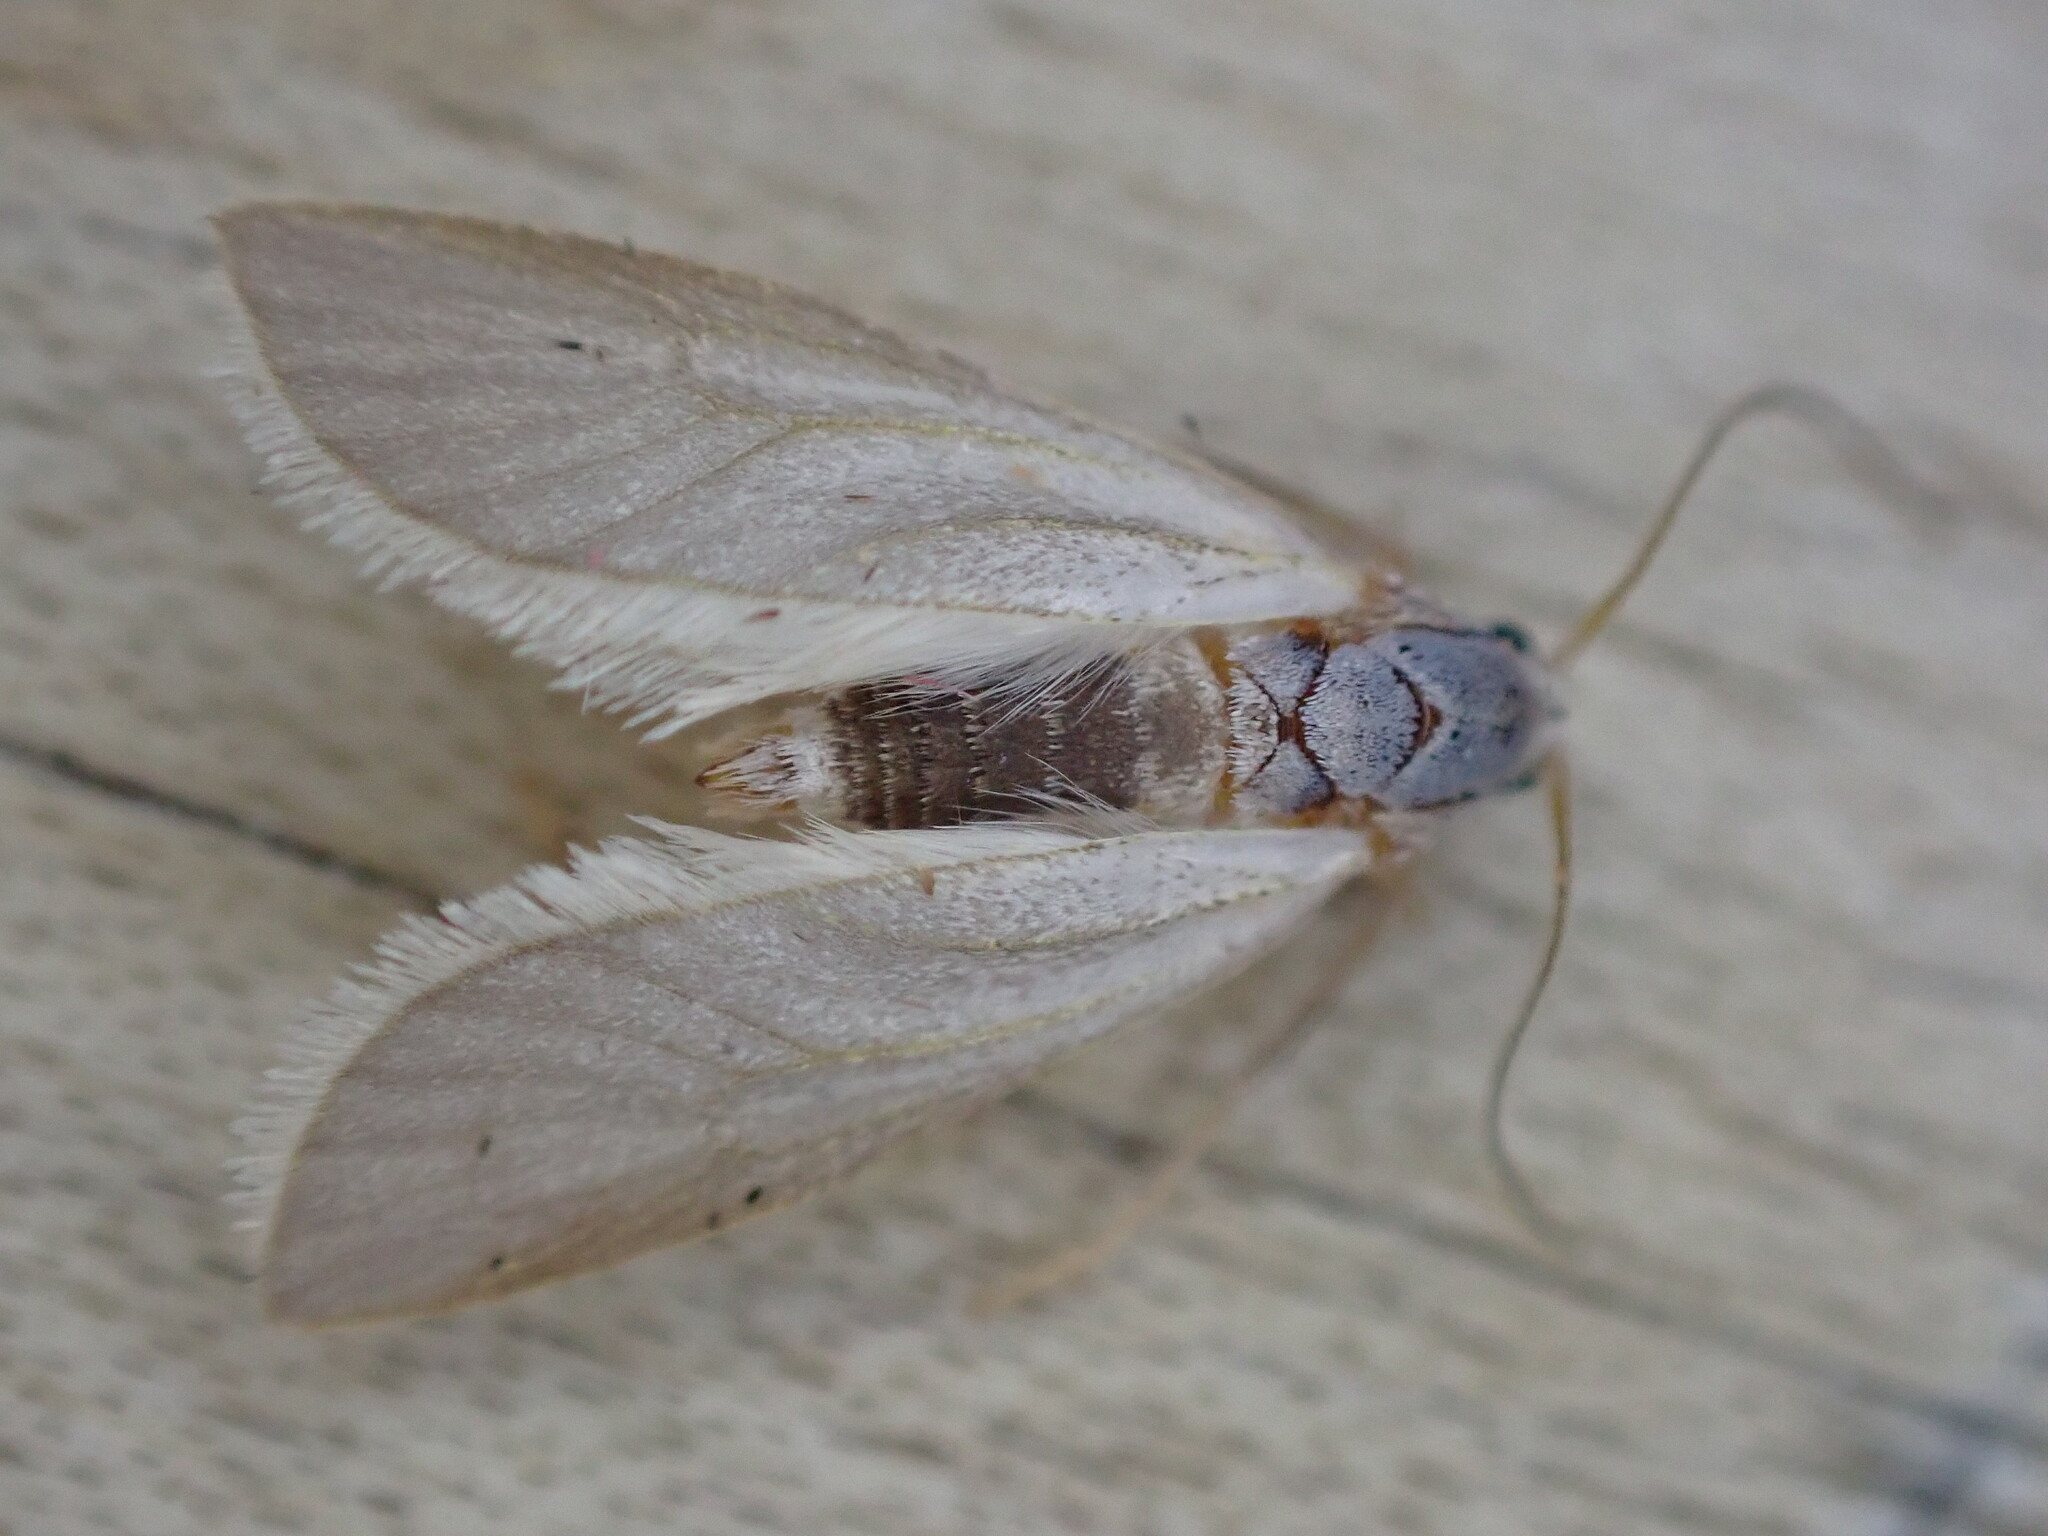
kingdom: Animalia
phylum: Arthropoda
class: Insecta
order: Lepidoptera
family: Crambidae
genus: Acentria
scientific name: Acentria ephemerella
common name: European water moth
